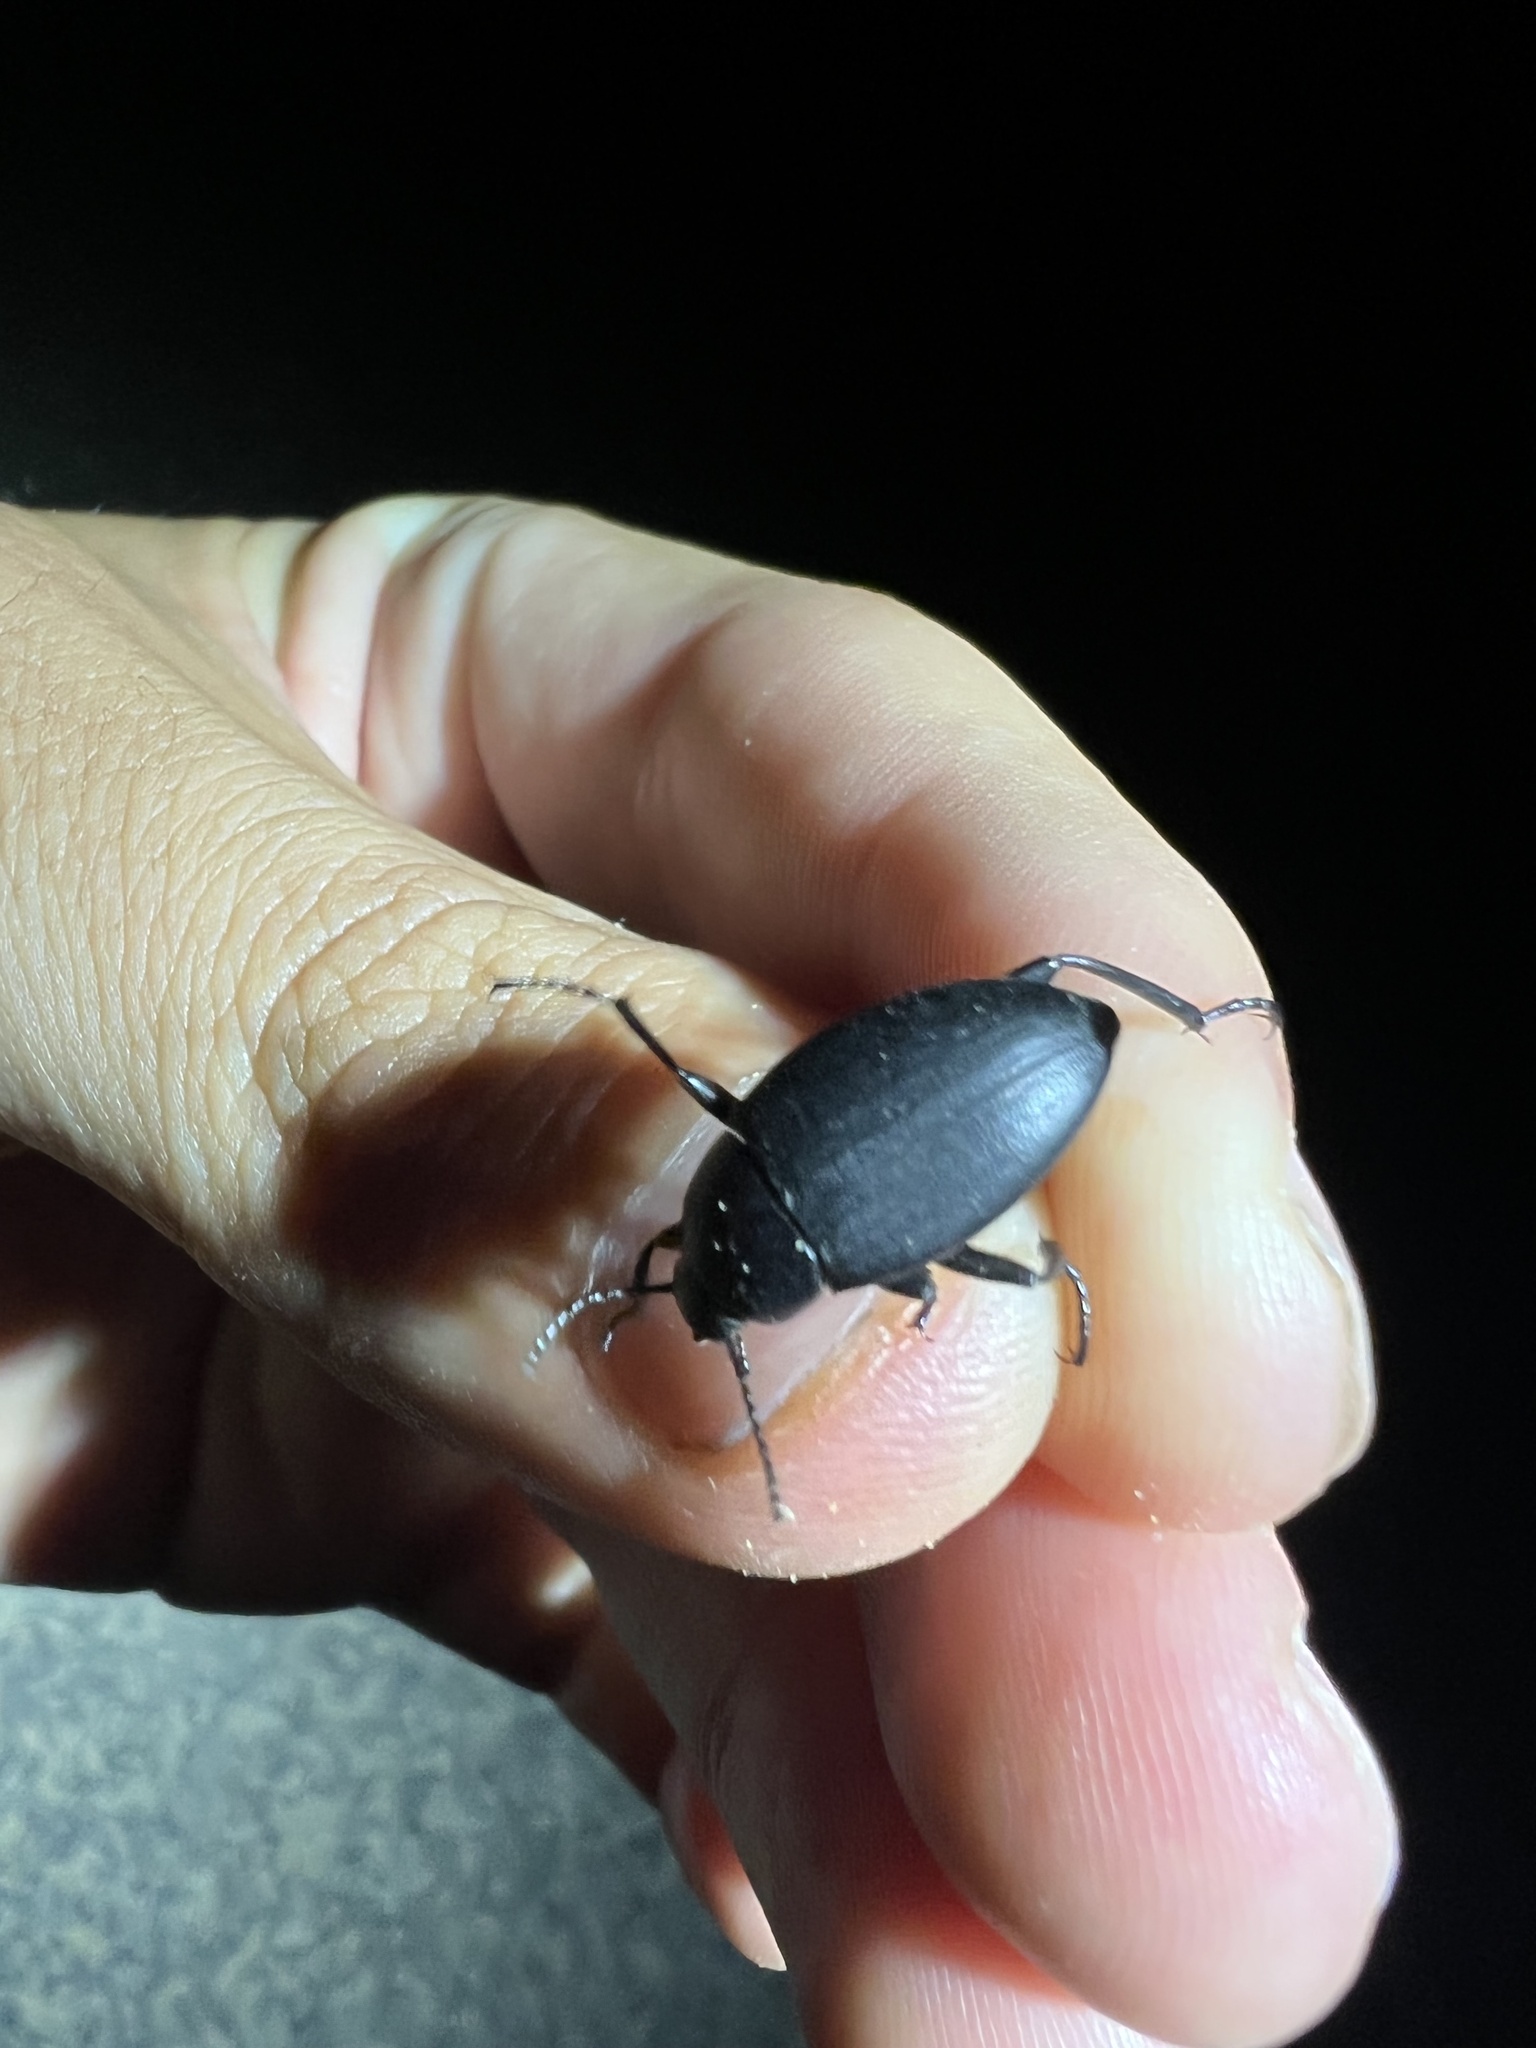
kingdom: Animalia
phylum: Arthropoda
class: Insecta
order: Coleoptera
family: Tenebrionidae
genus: Eleodes
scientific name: Eleodes fusiformis
